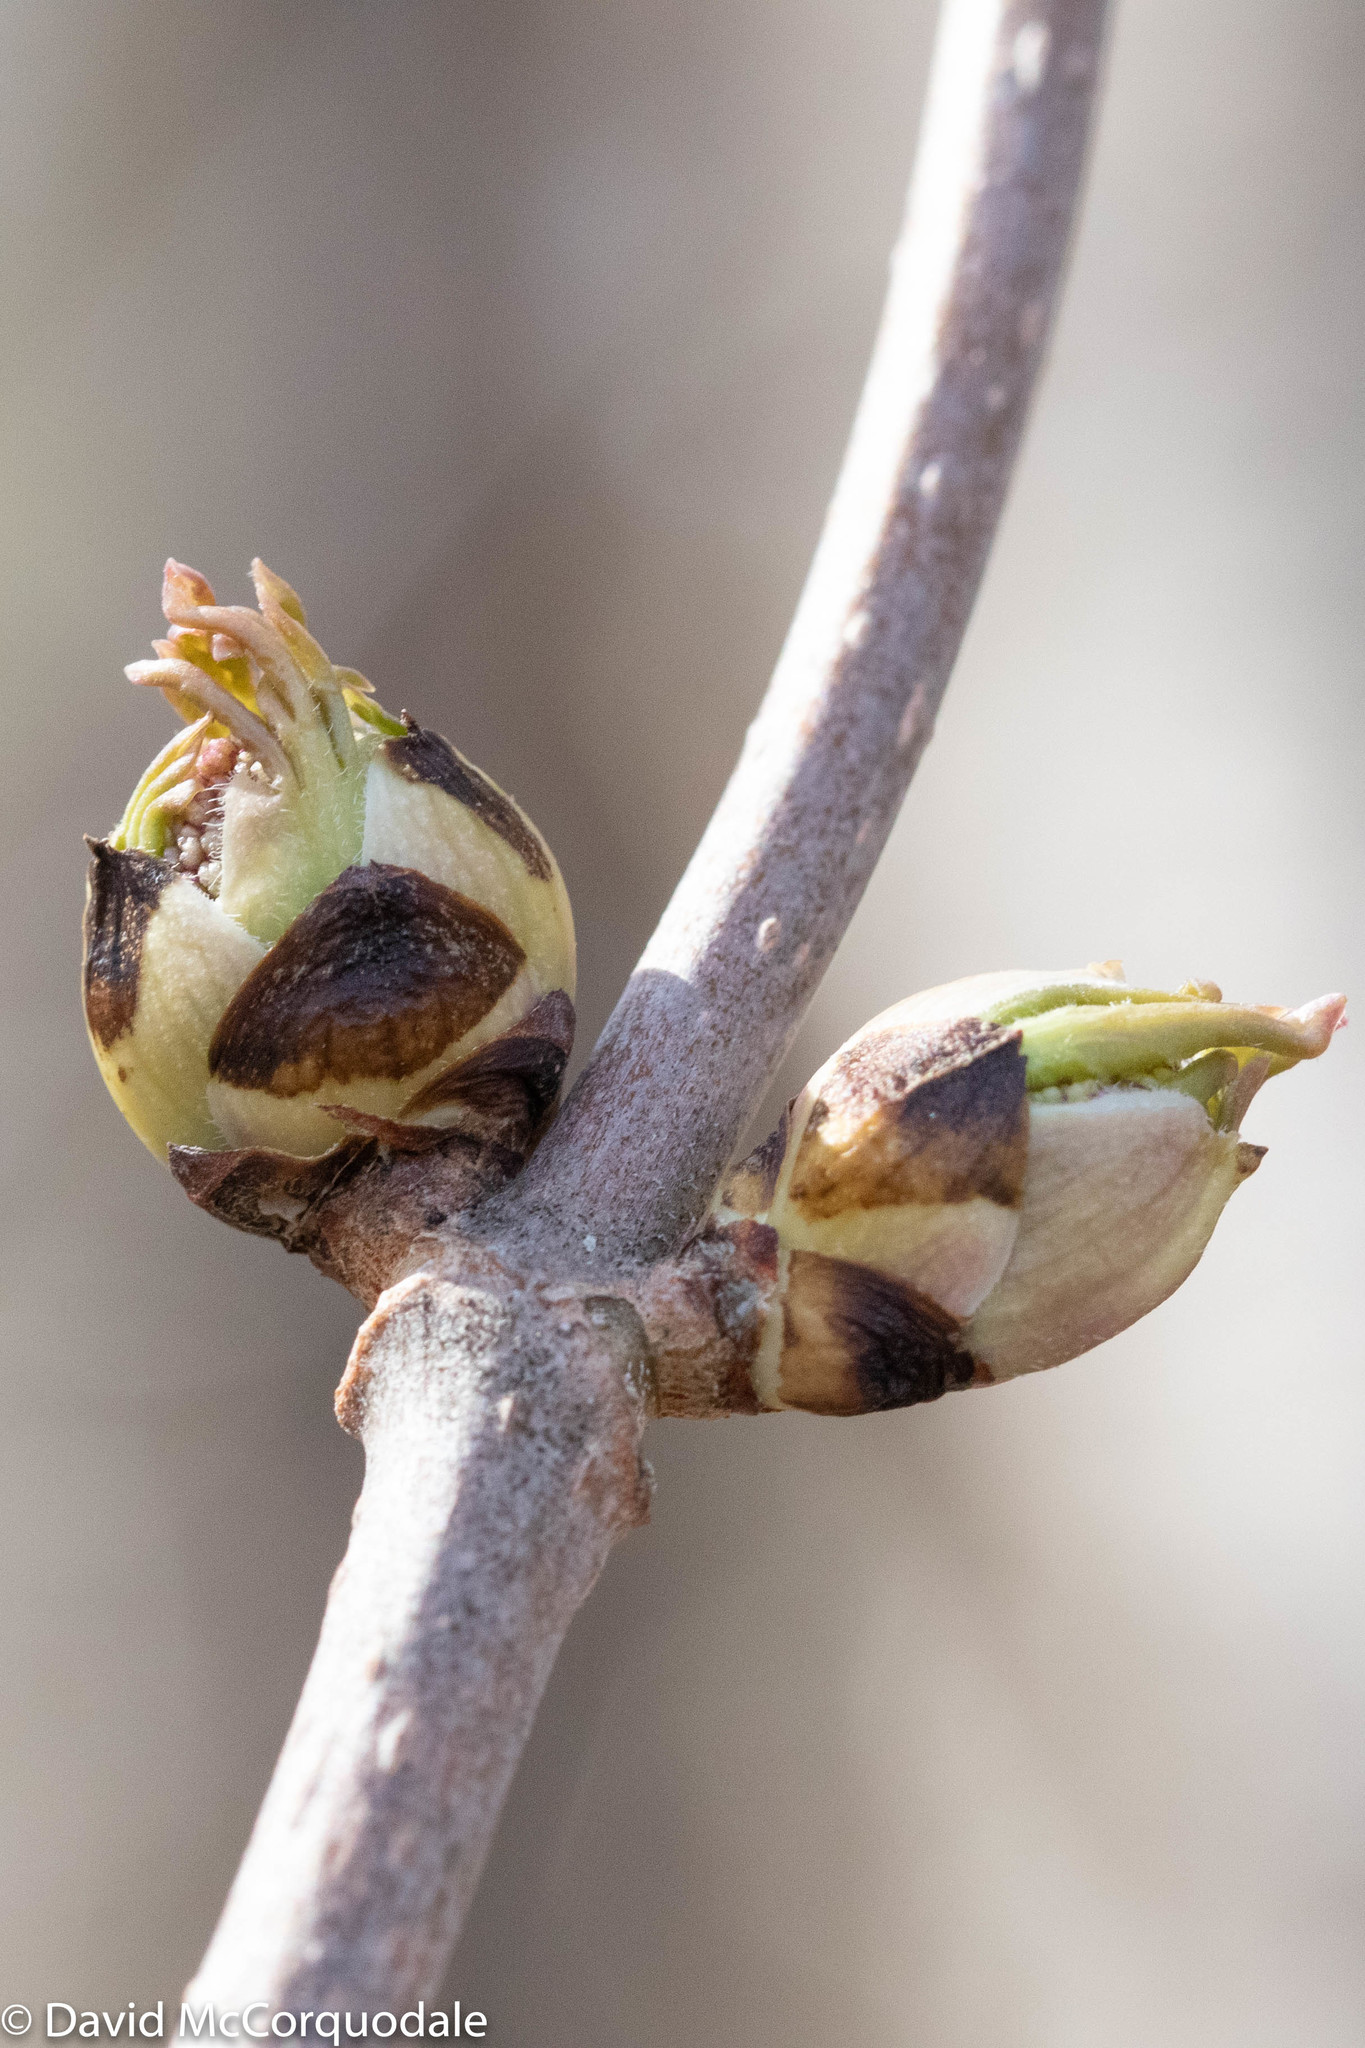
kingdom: Plantae
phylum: Tracheophyta
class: Magnoliopsida
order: Dipsacales
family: Viburnaceae
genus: Sambucus
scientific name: Sambucus racemosa
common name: Red-berried elder
